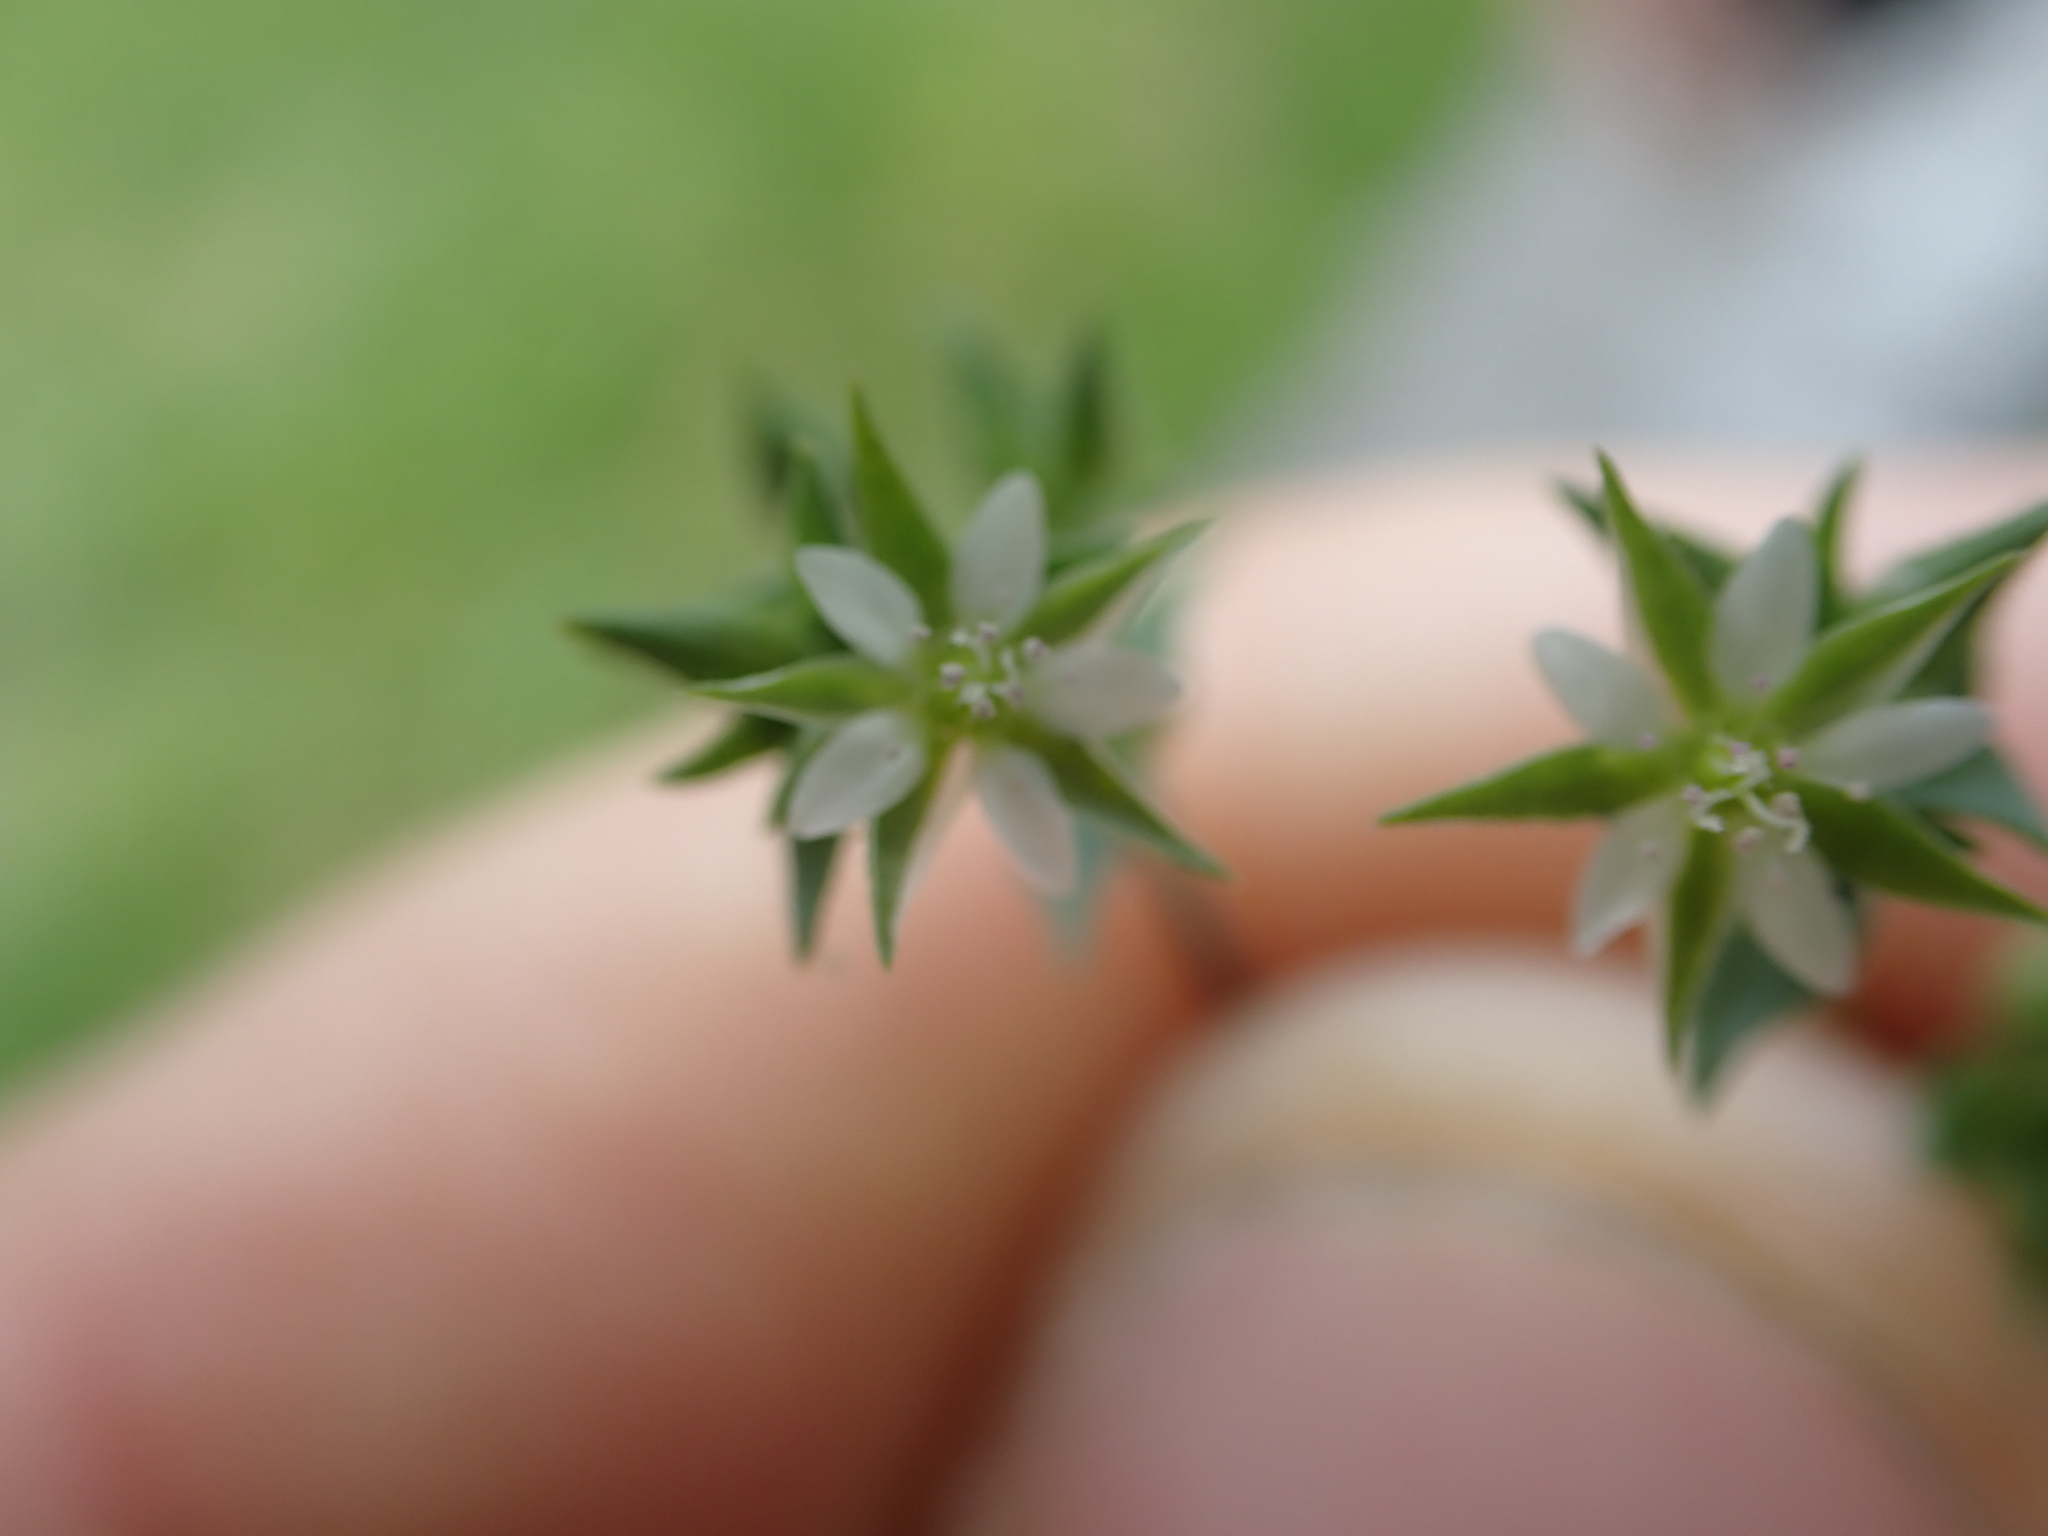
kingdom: Plantae
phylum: Tracheophyta
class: Magnoliopsida
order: Caryophyllales
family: Caryophyllaceae
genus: Arenaria
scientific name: Arenaria serpyllifolia
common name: Thyme-leaved sandwort
